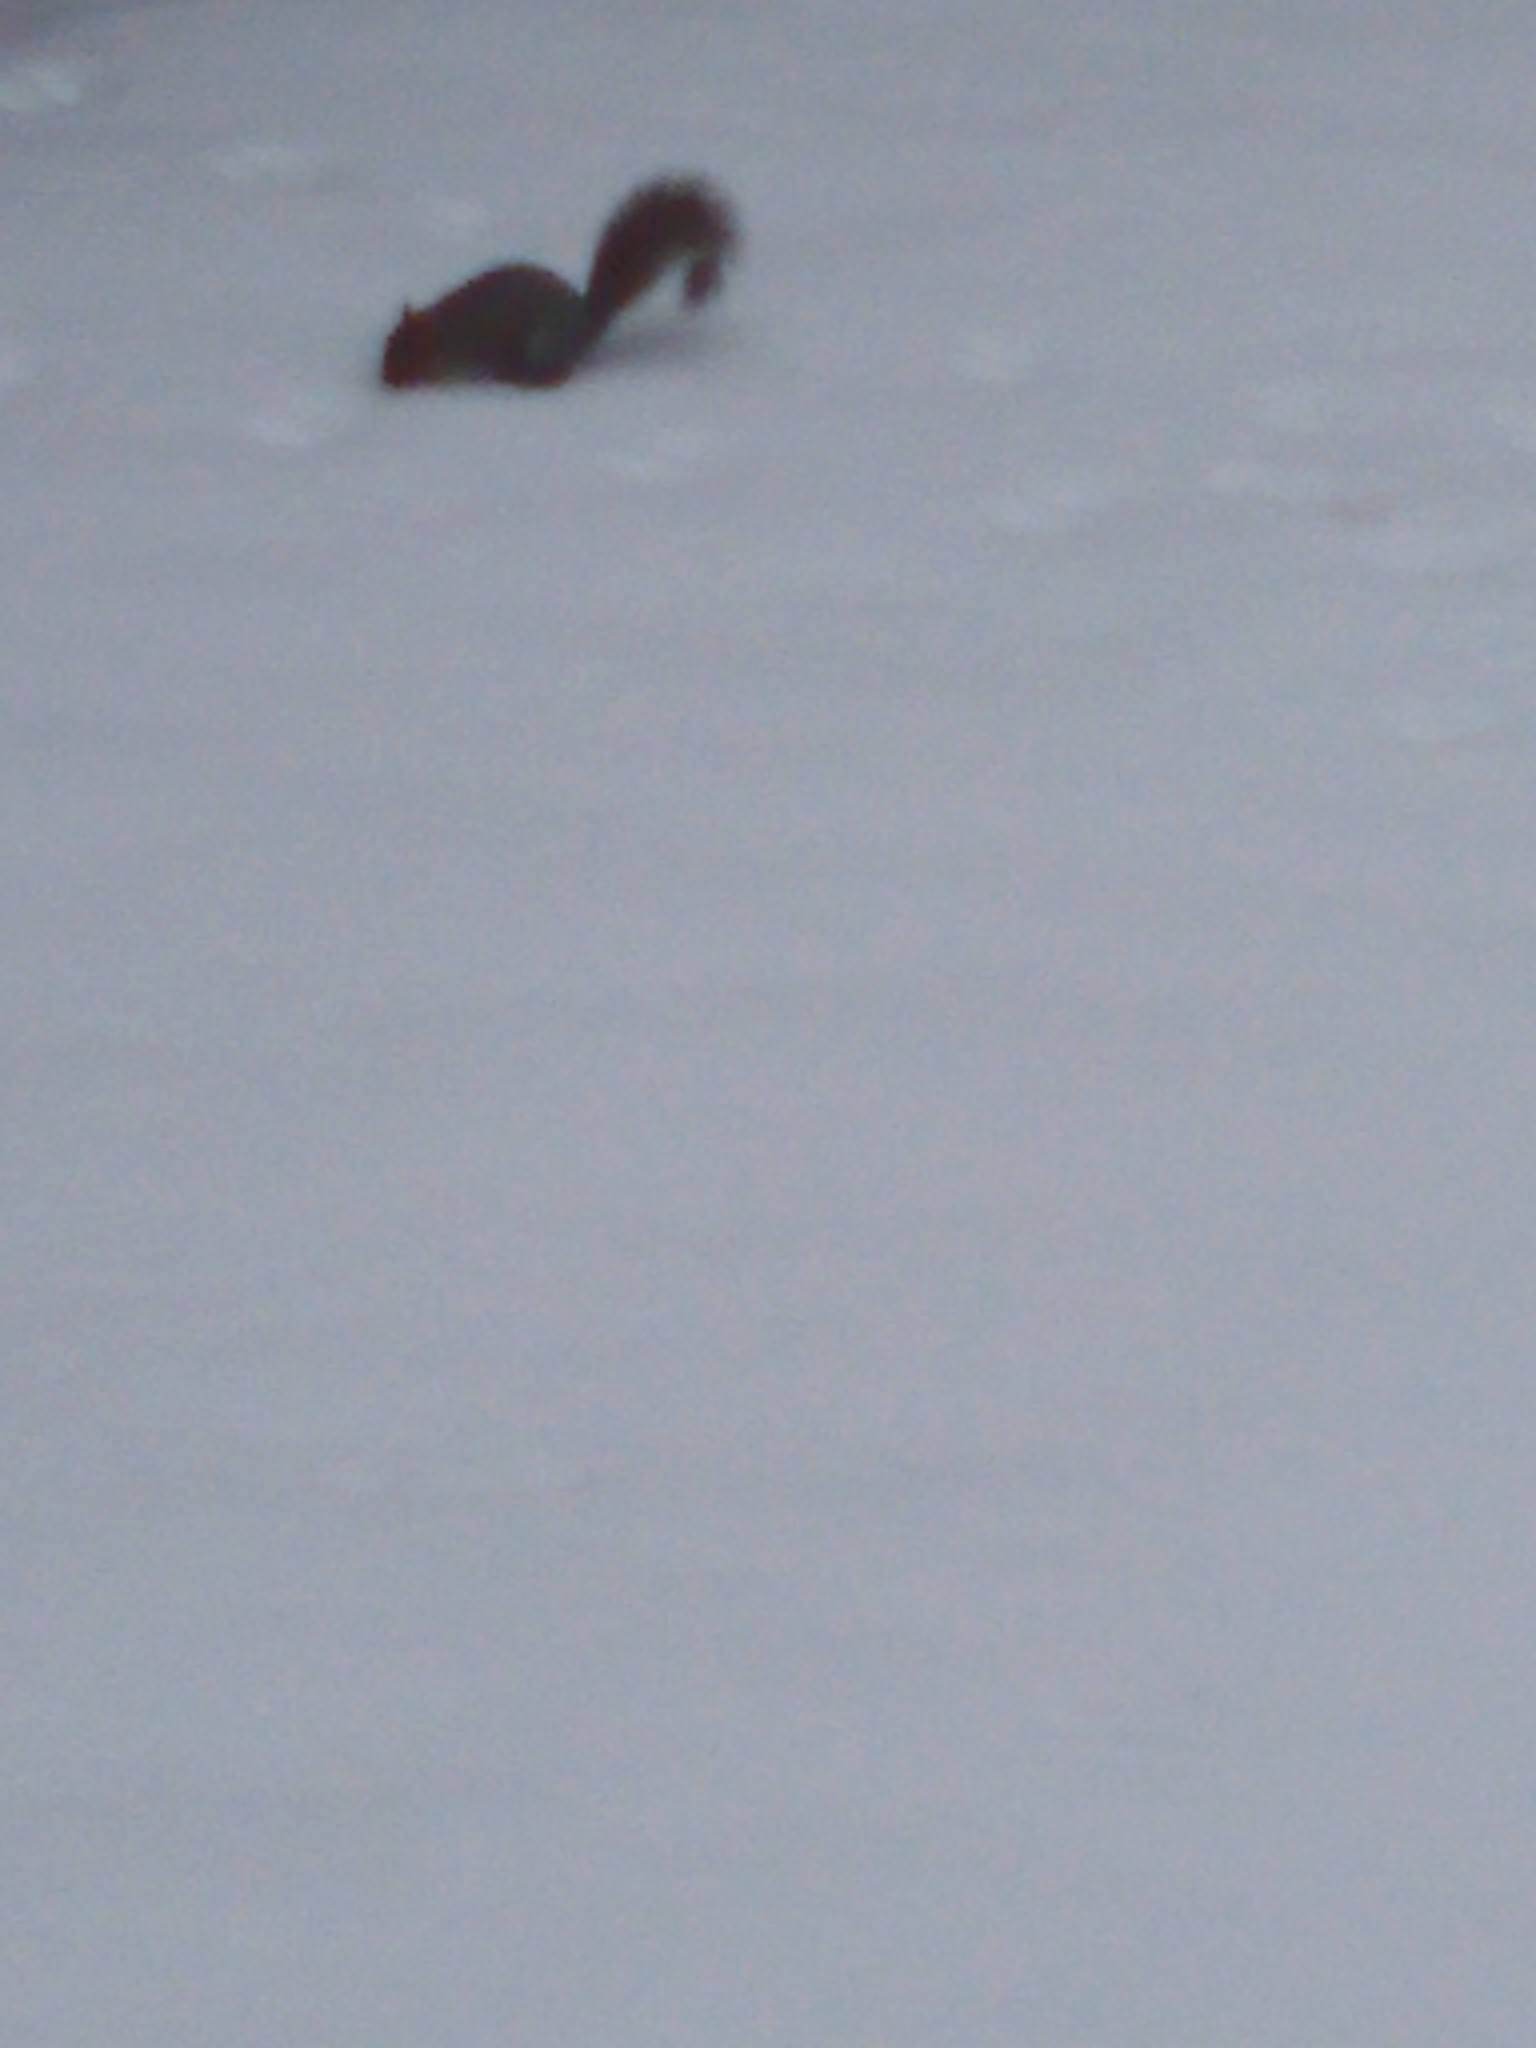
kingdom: Animalia
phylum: Chordata
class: Mammalia
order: Rodentia
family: Sciuridae
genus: Sciurus
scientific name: Sciurus carolinensis
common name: Eastern gray squirrel
